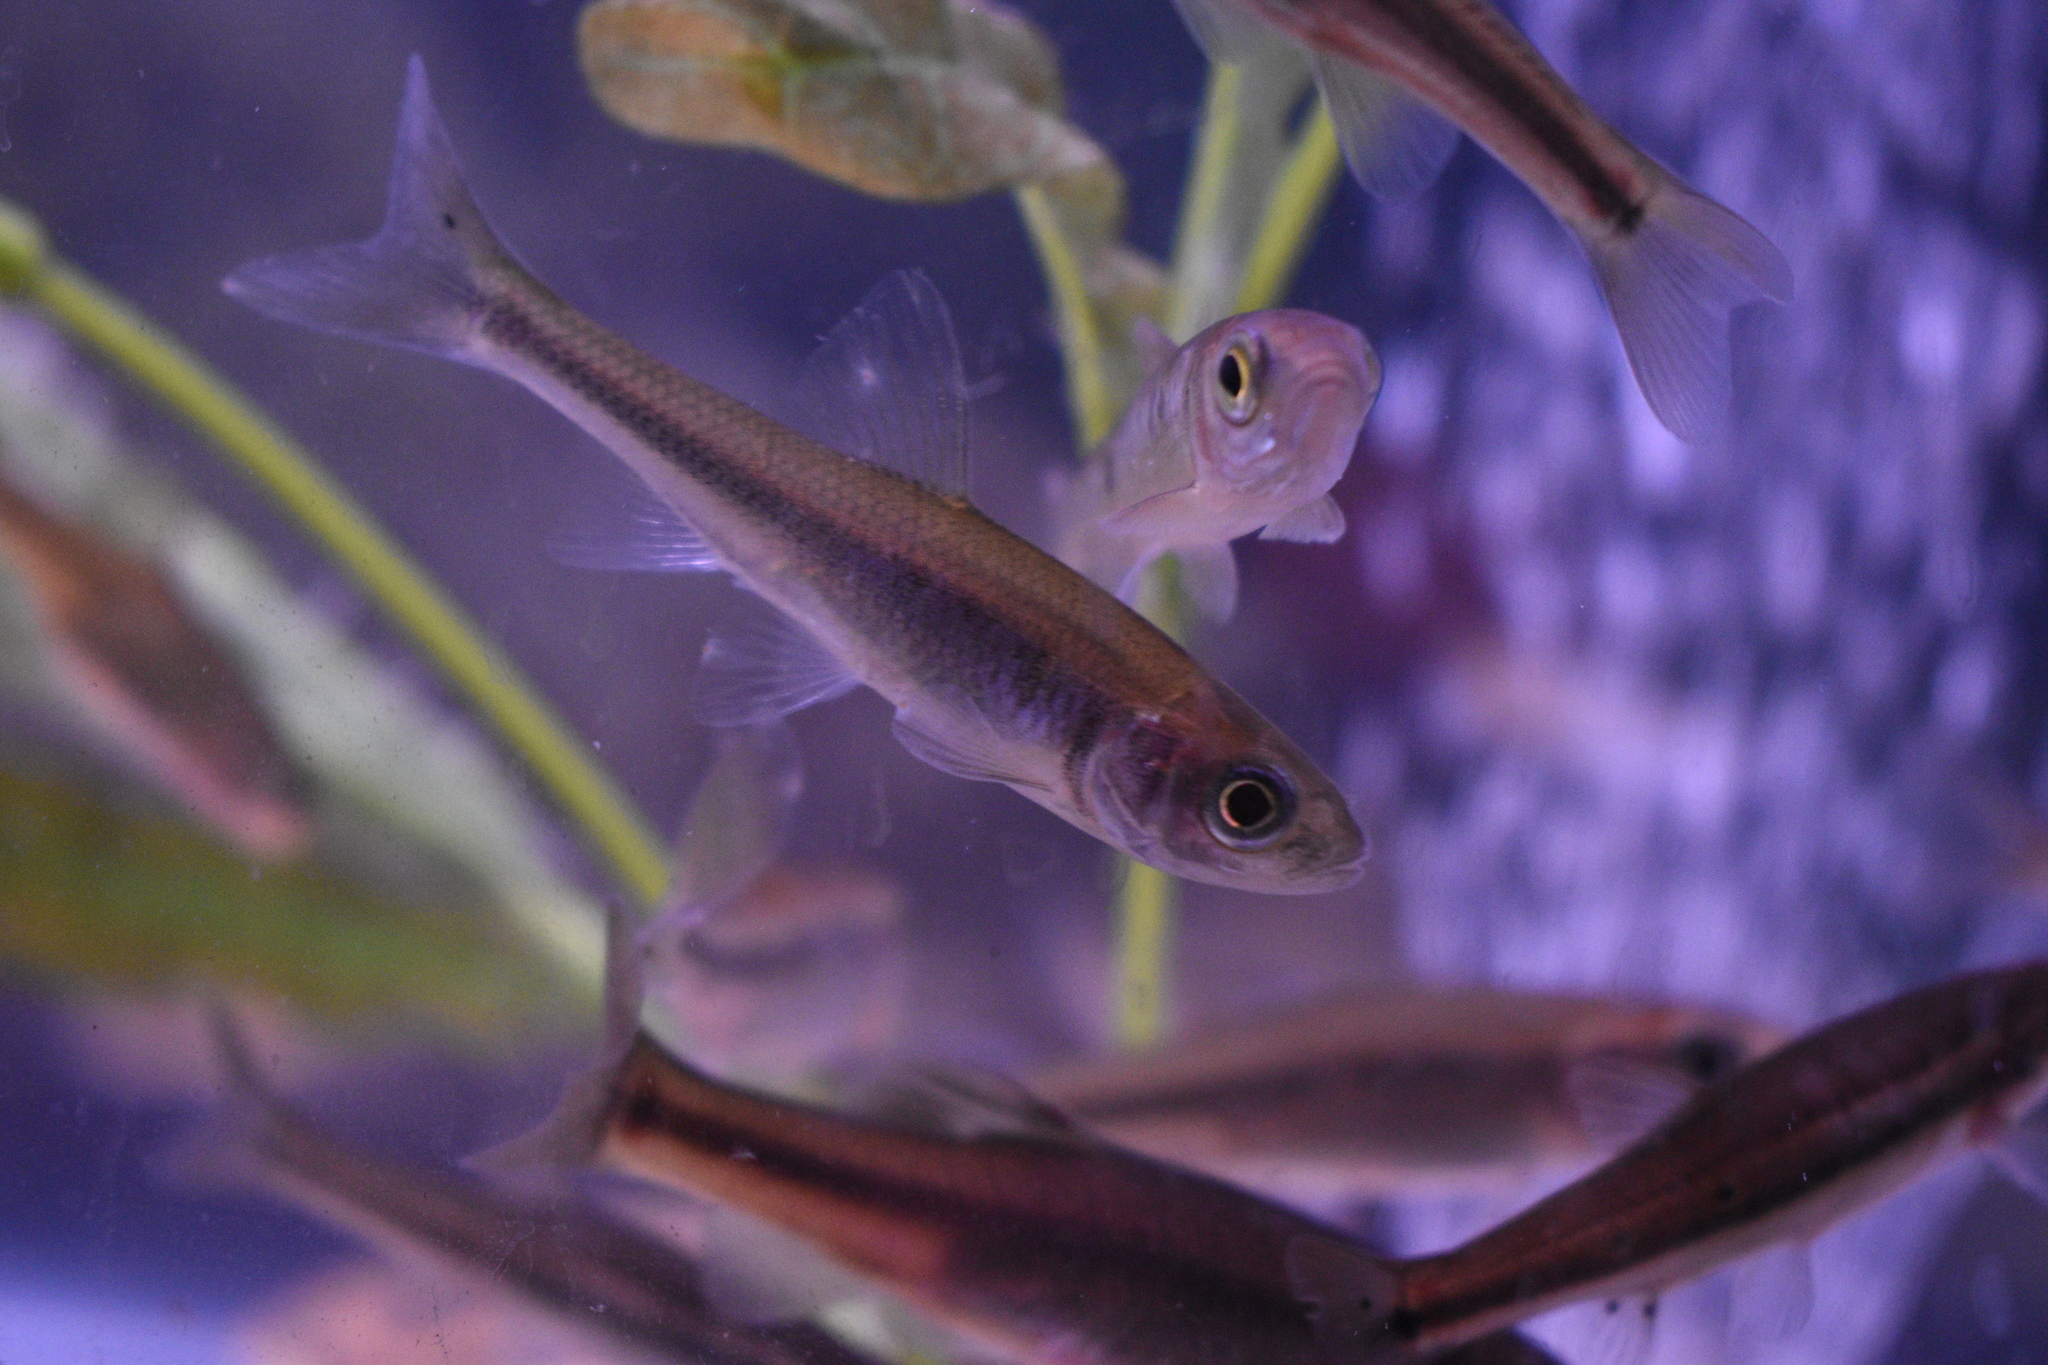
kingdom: Animalia
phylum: Chordata
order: Cypriniformes
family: Cyprinidae
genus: Luxilus
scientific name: Luxilus cornutus
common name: Common shiner
